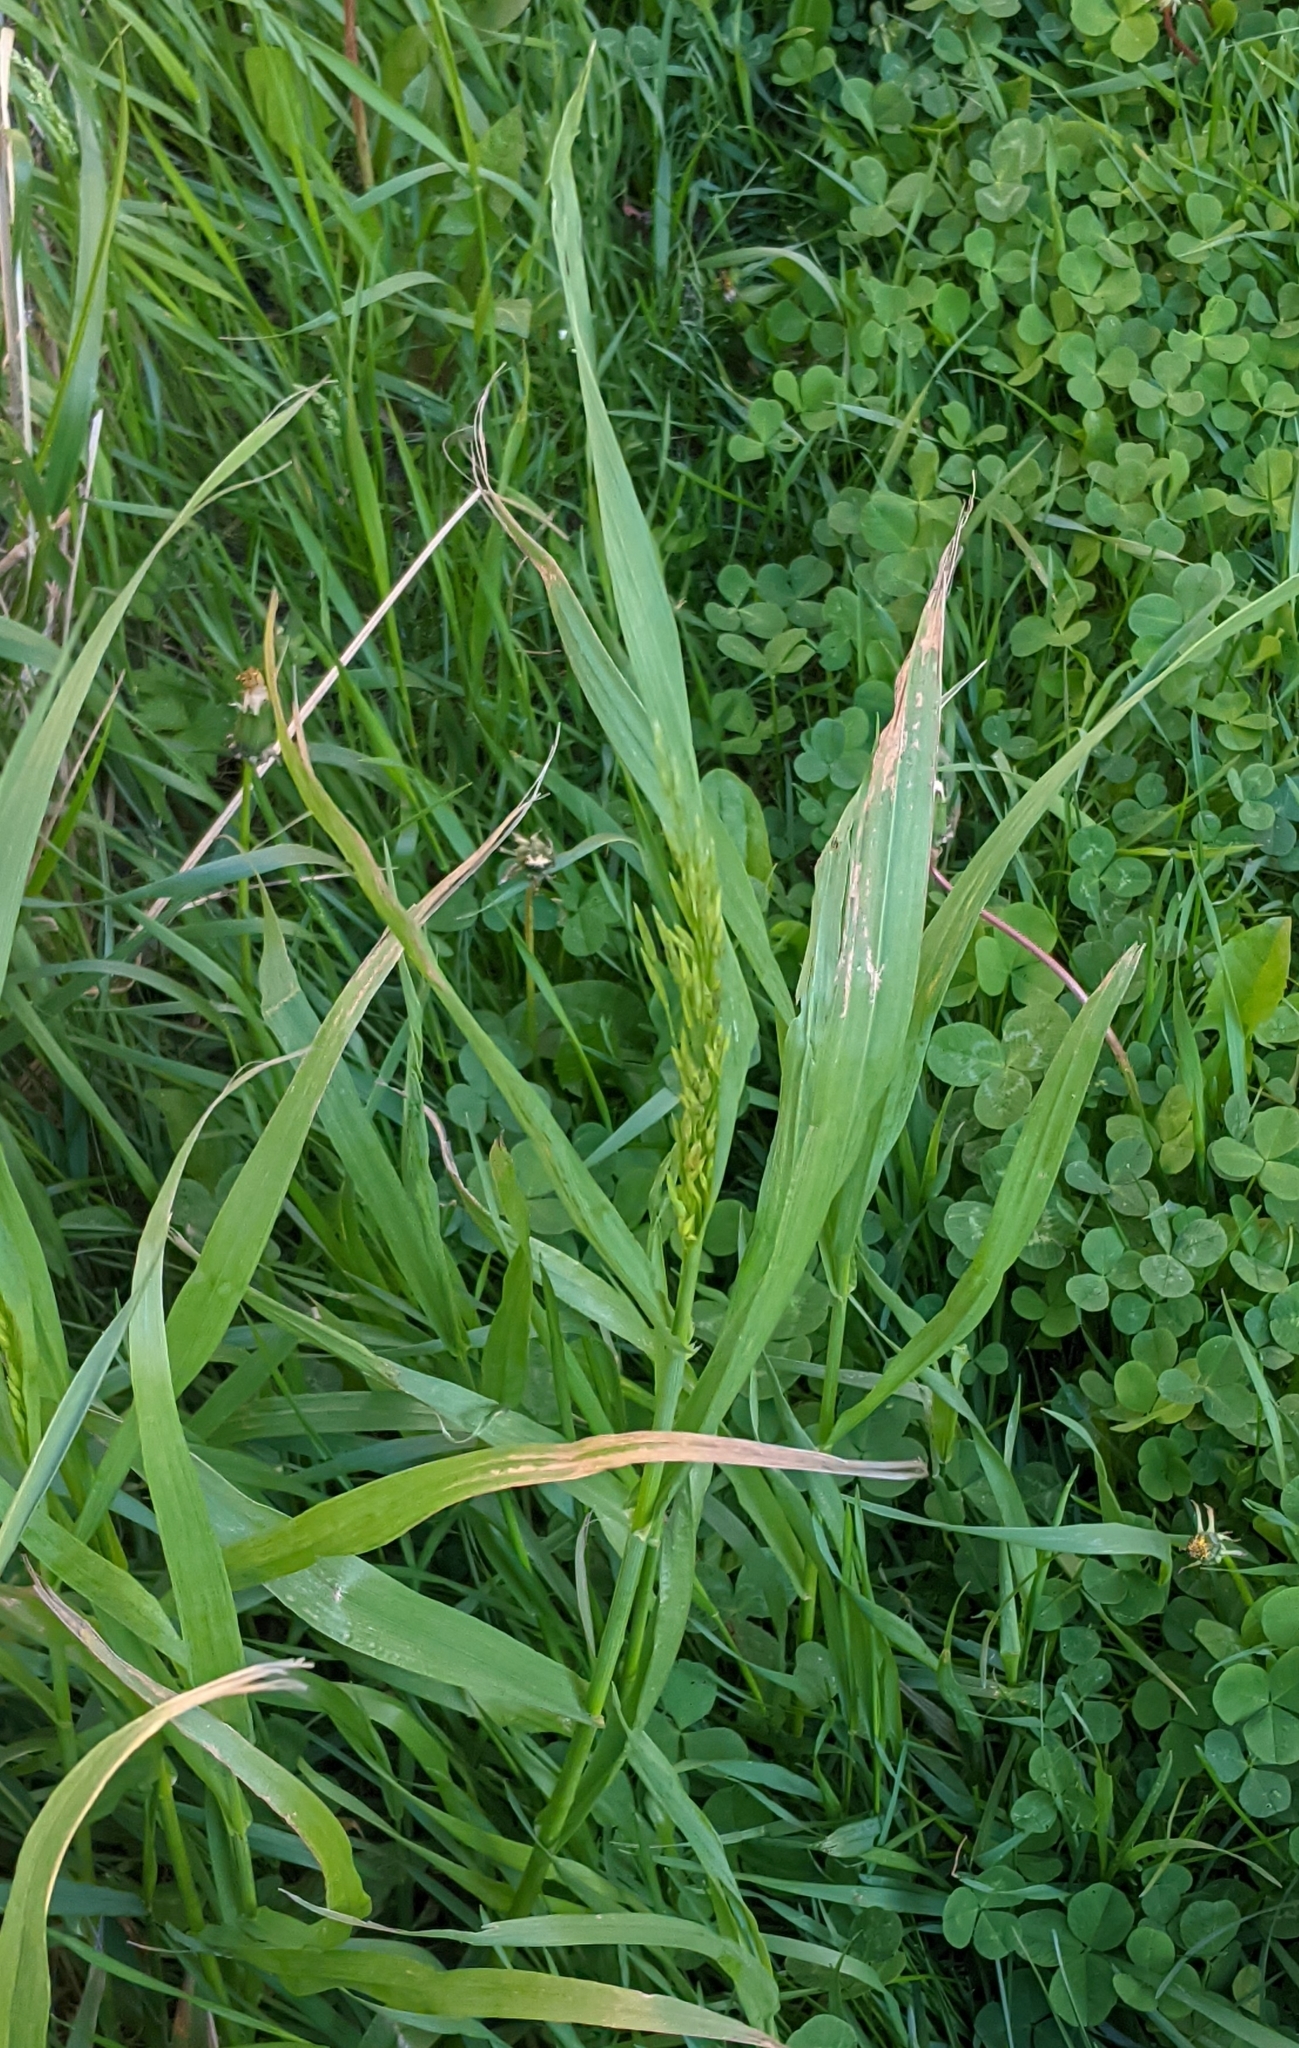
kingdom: Plantae
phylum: Tracheophyta
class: Liliopsida
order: Poales
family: Poaceae
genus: Bromus
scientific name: Bromus inermis
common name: Smooth brome
